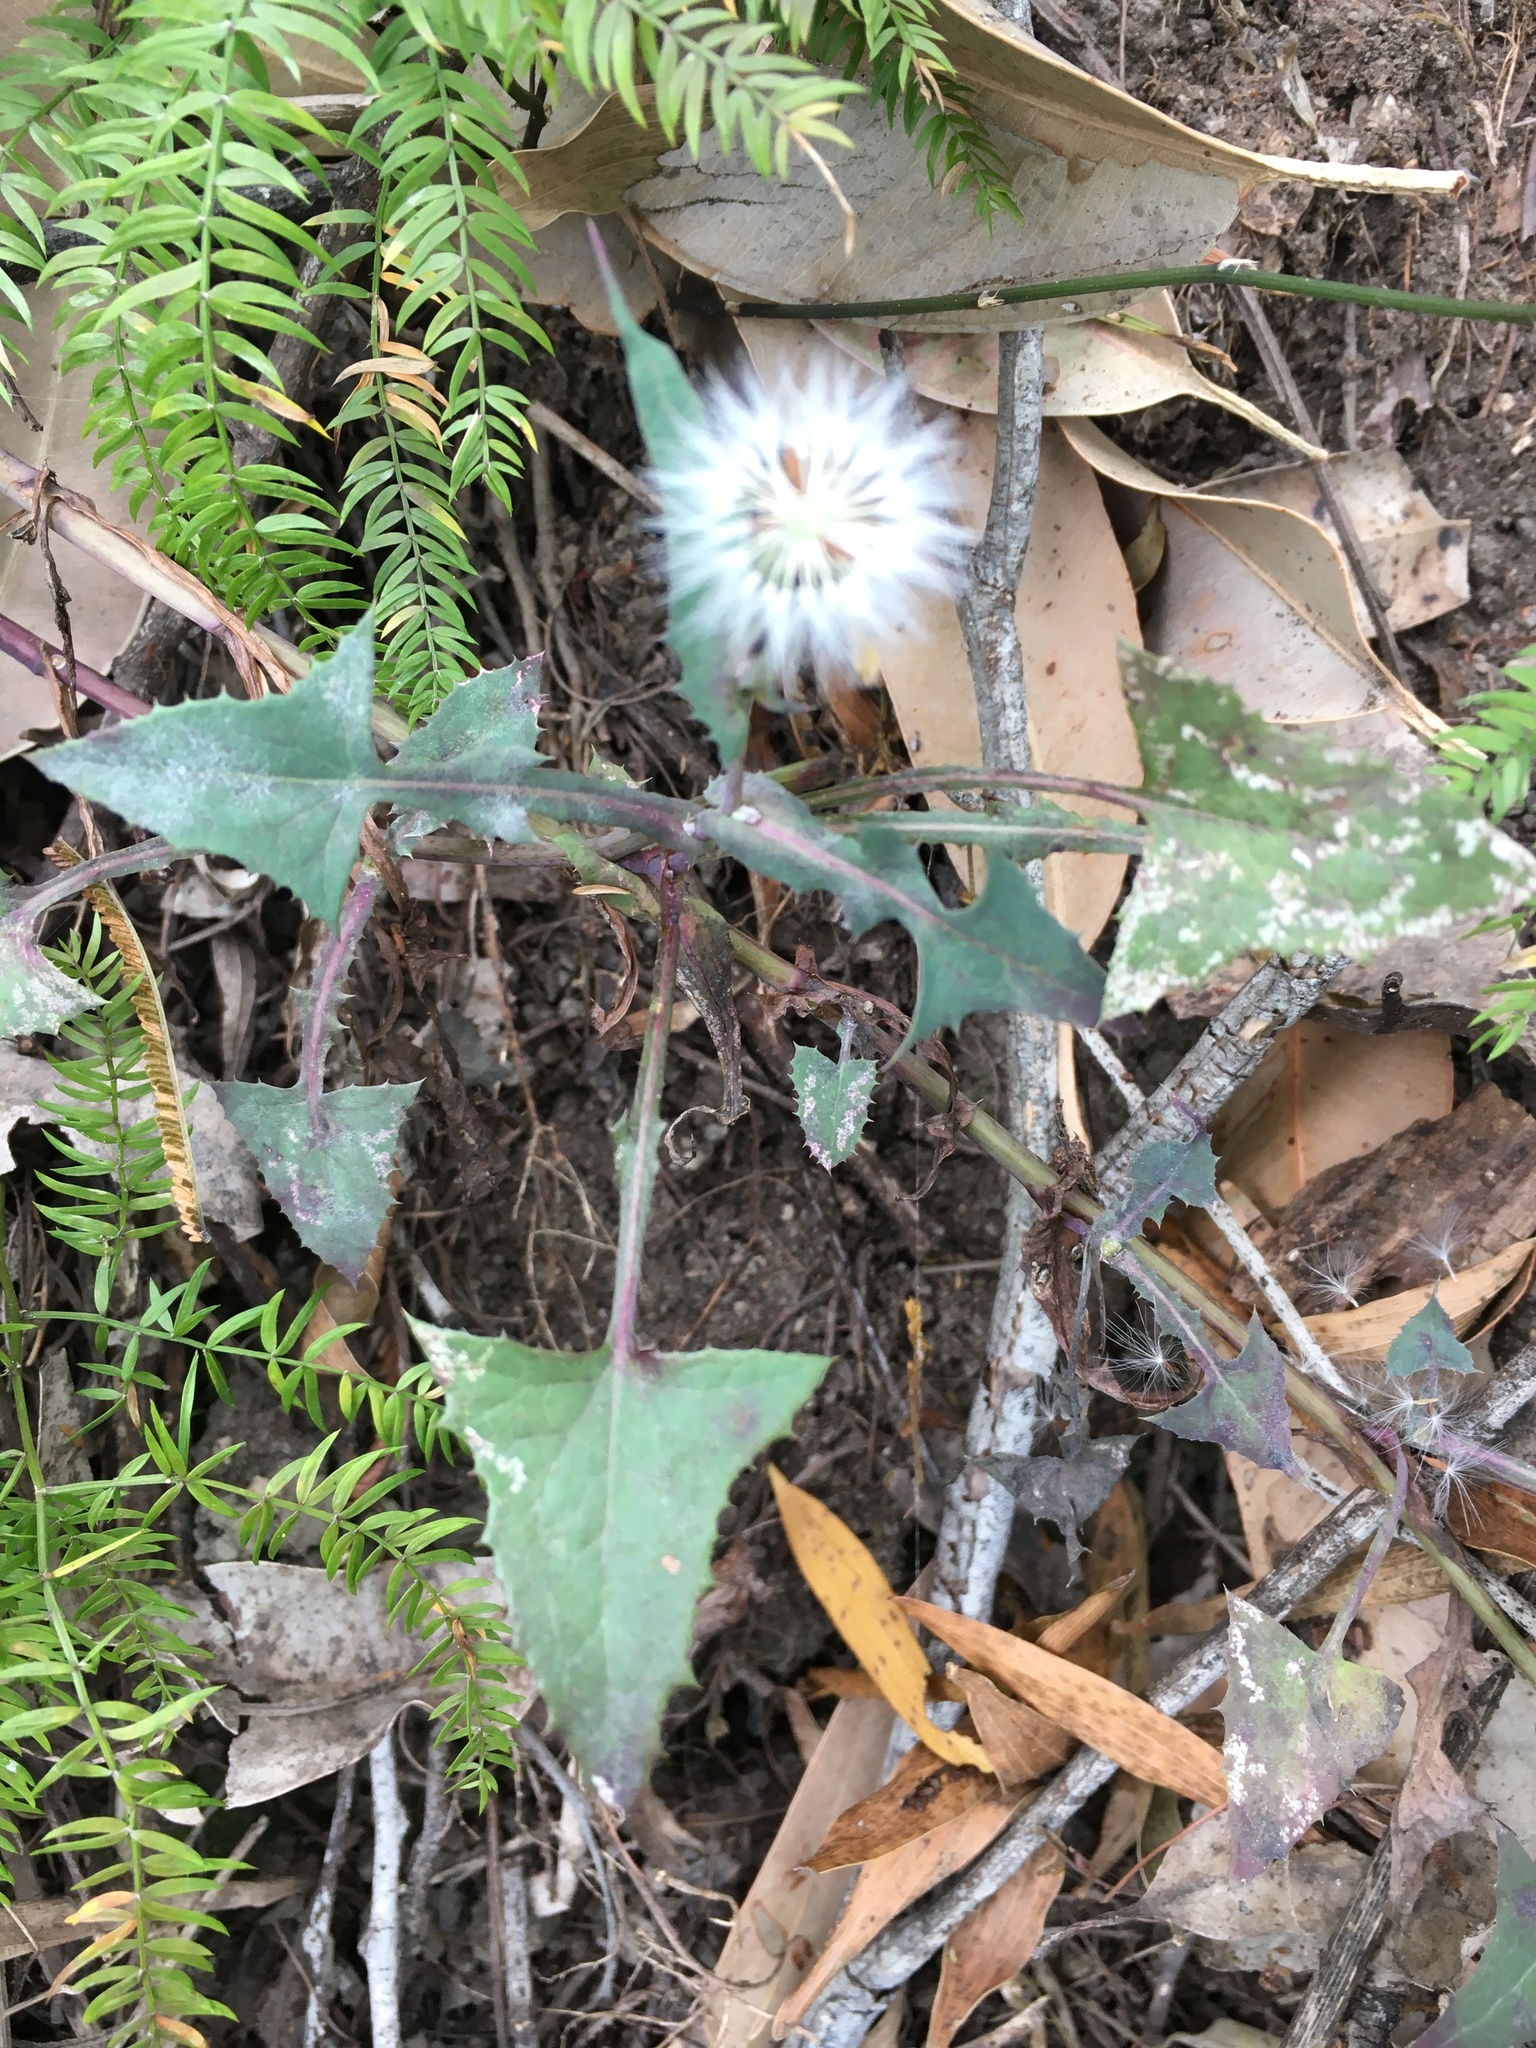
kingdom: Plantae
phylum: Tracheophyta
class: Magnoliopsida
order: Asterales
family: Asteraceae
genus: Sonchus
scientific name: Sonchus oleraceus
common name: Common sowthistle
